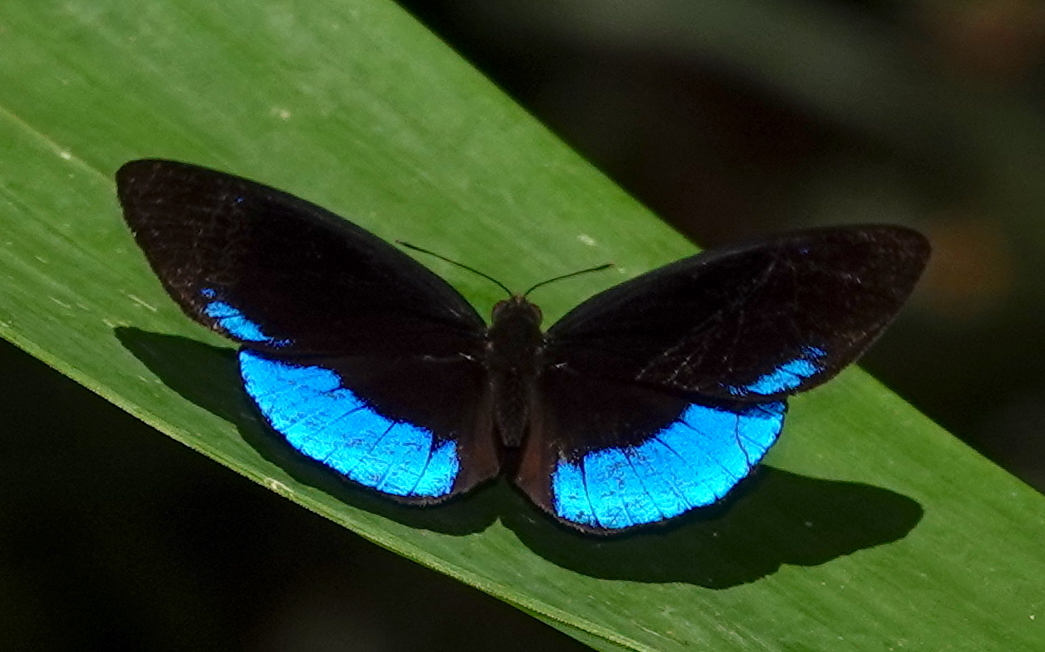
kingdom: Animalia
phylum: Arthropoda
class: Insecta
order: Lepidoptera
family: Nymphalidae
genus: Eunica
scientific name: Eunica sophonisba
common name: Glorious purplewing
